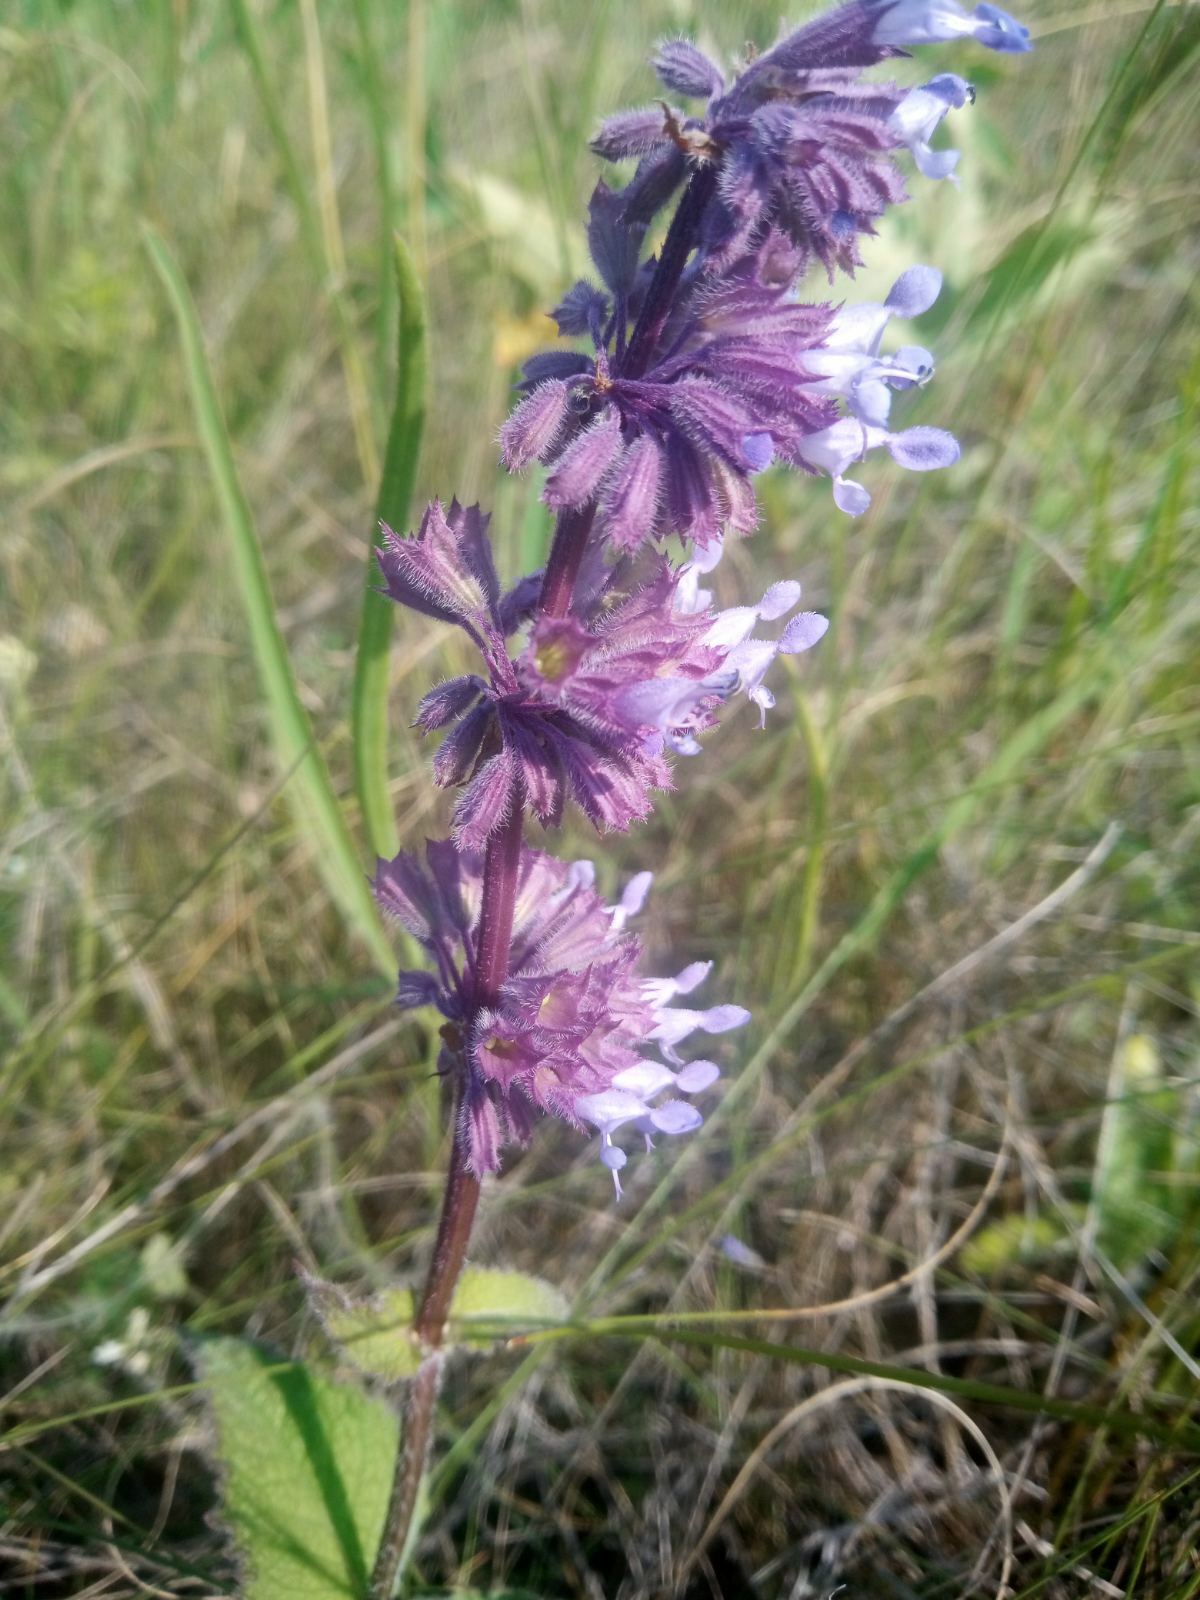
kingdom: Plantae
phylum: Tracheophyta
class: Magnoliopsida
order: Lamiales
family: Lamiaceae
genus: Salvia
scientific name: Salvia verticillata
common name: Whorled clary
